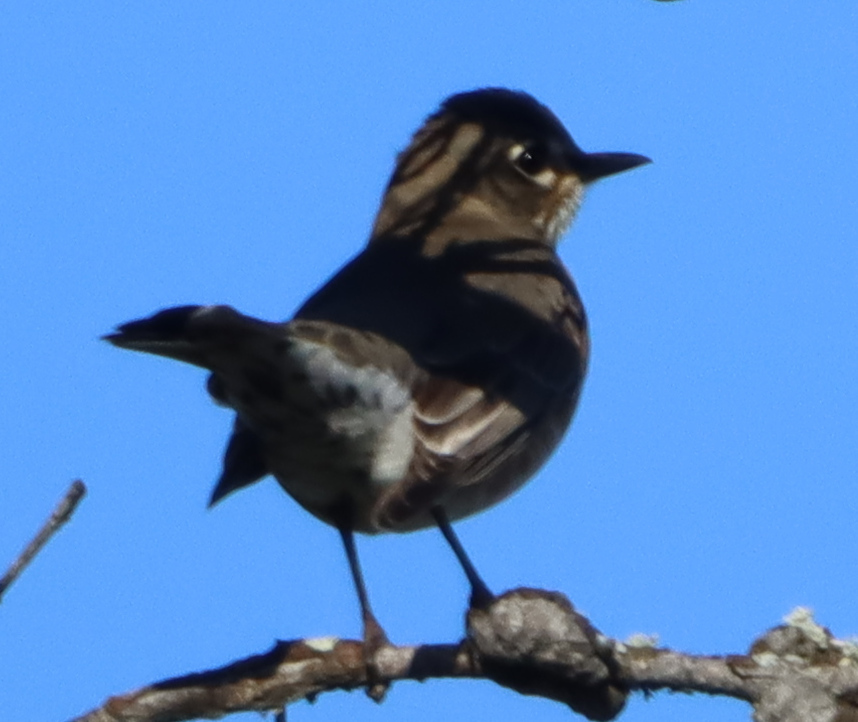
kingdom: Animalia
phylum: Chordata
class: Aves
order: Passeriformes
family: Turdidae
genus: Catharus
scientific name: Catharus ustulatus
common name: Swainson's thrush
